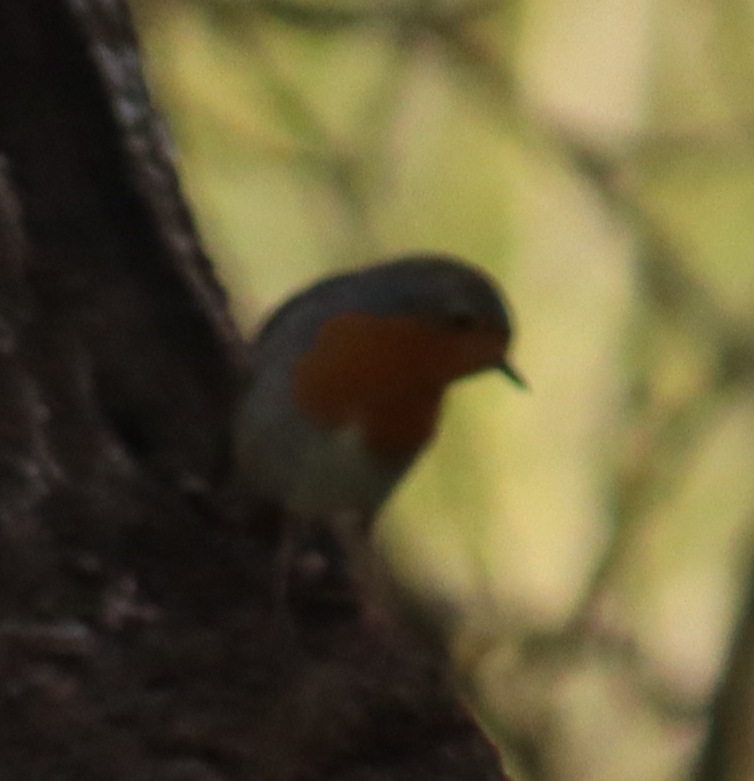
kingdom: Animalia
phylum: Chordata
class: Aves
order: Passeriformes
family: Muscicapidae
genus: Erithacus
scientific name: Erithacus rubecula
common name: European robin
